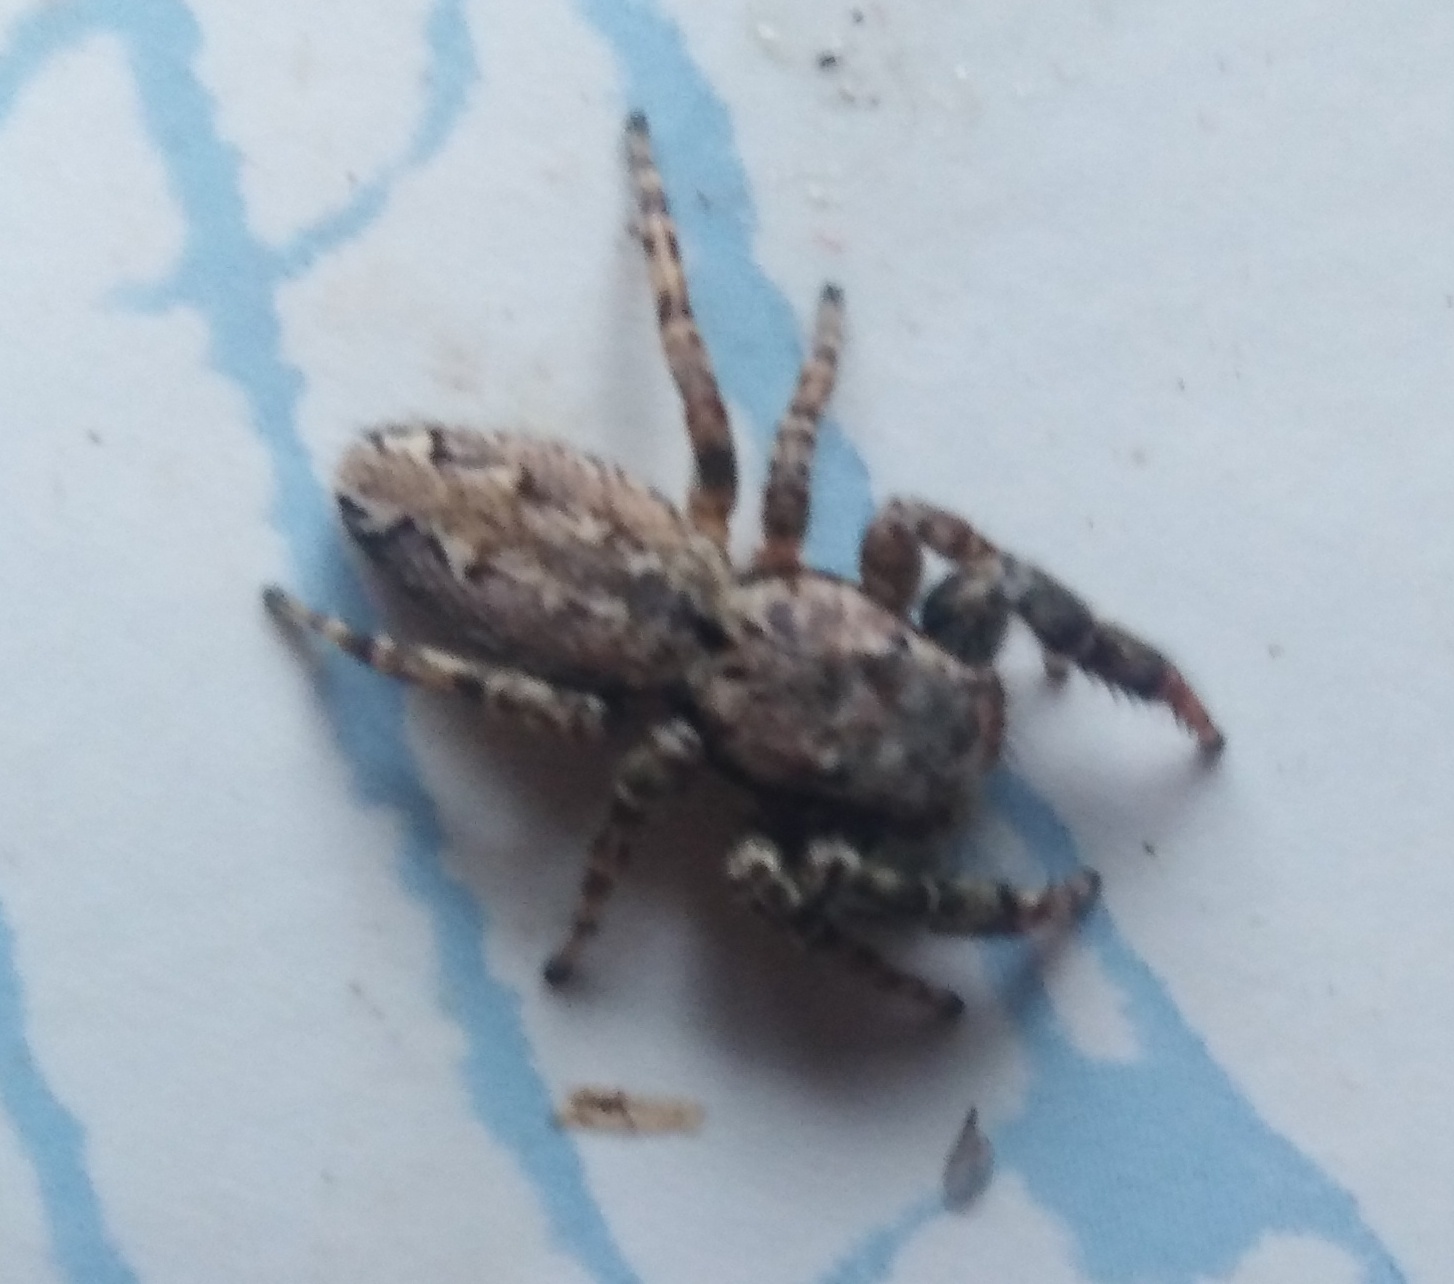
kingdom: Animalia
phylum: Arthropoda
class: Arachnida
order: Araneae
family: Salticidae
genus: Marpissa
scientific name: Marpissa muscosa
